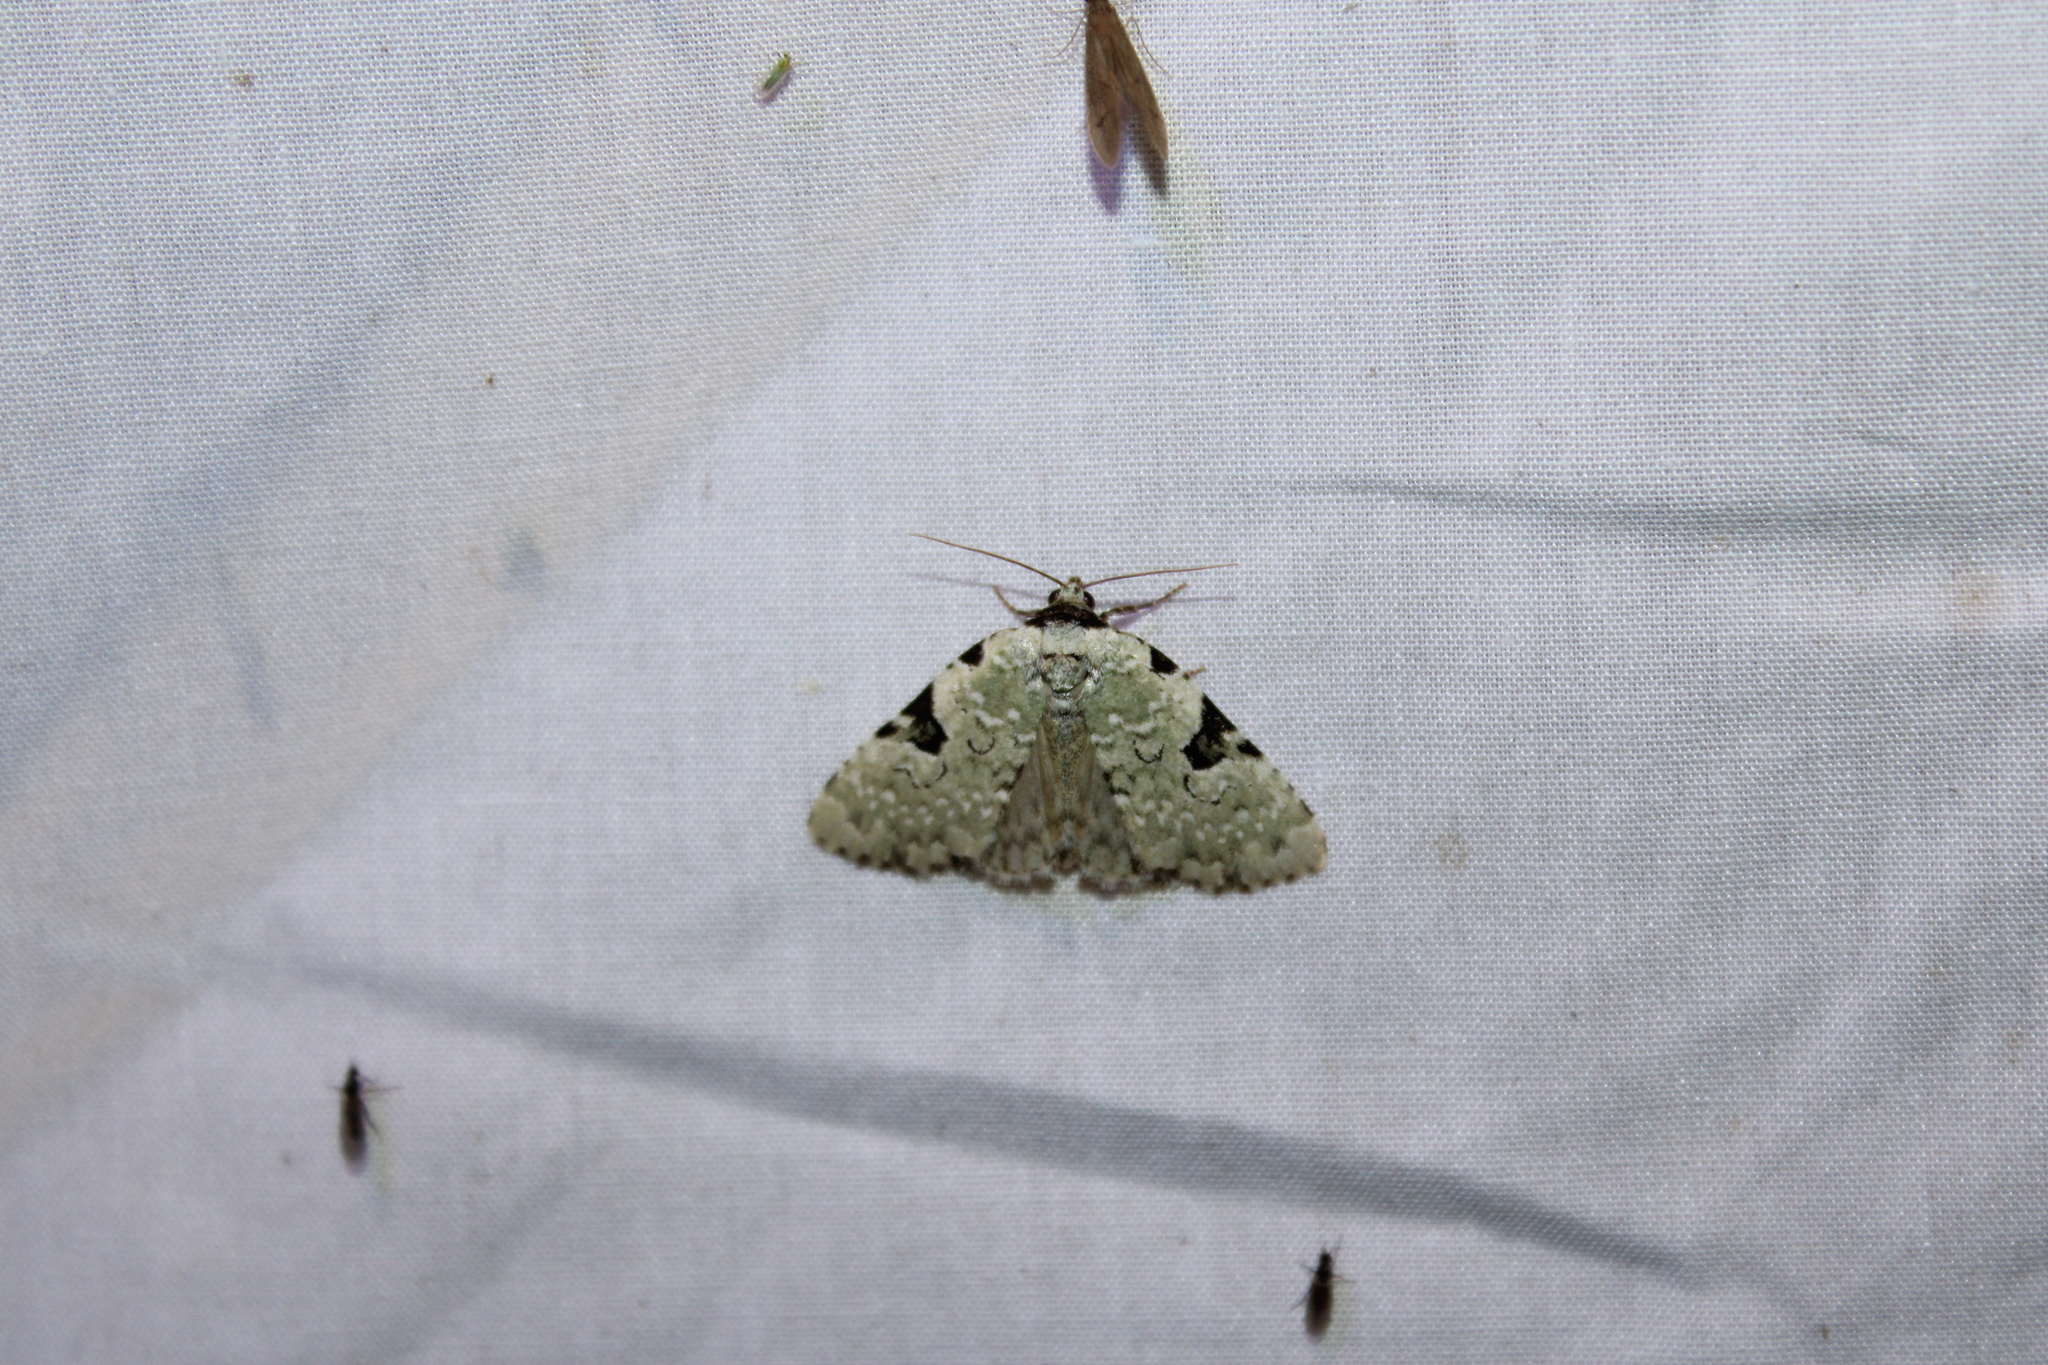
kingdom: Animalia
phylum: Arthropoda
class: Insecta
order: Lepidoptera
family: Noctuidae
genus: Leuconycta
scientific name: Leuconycta diphteroides
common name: Green leuconycta moth
